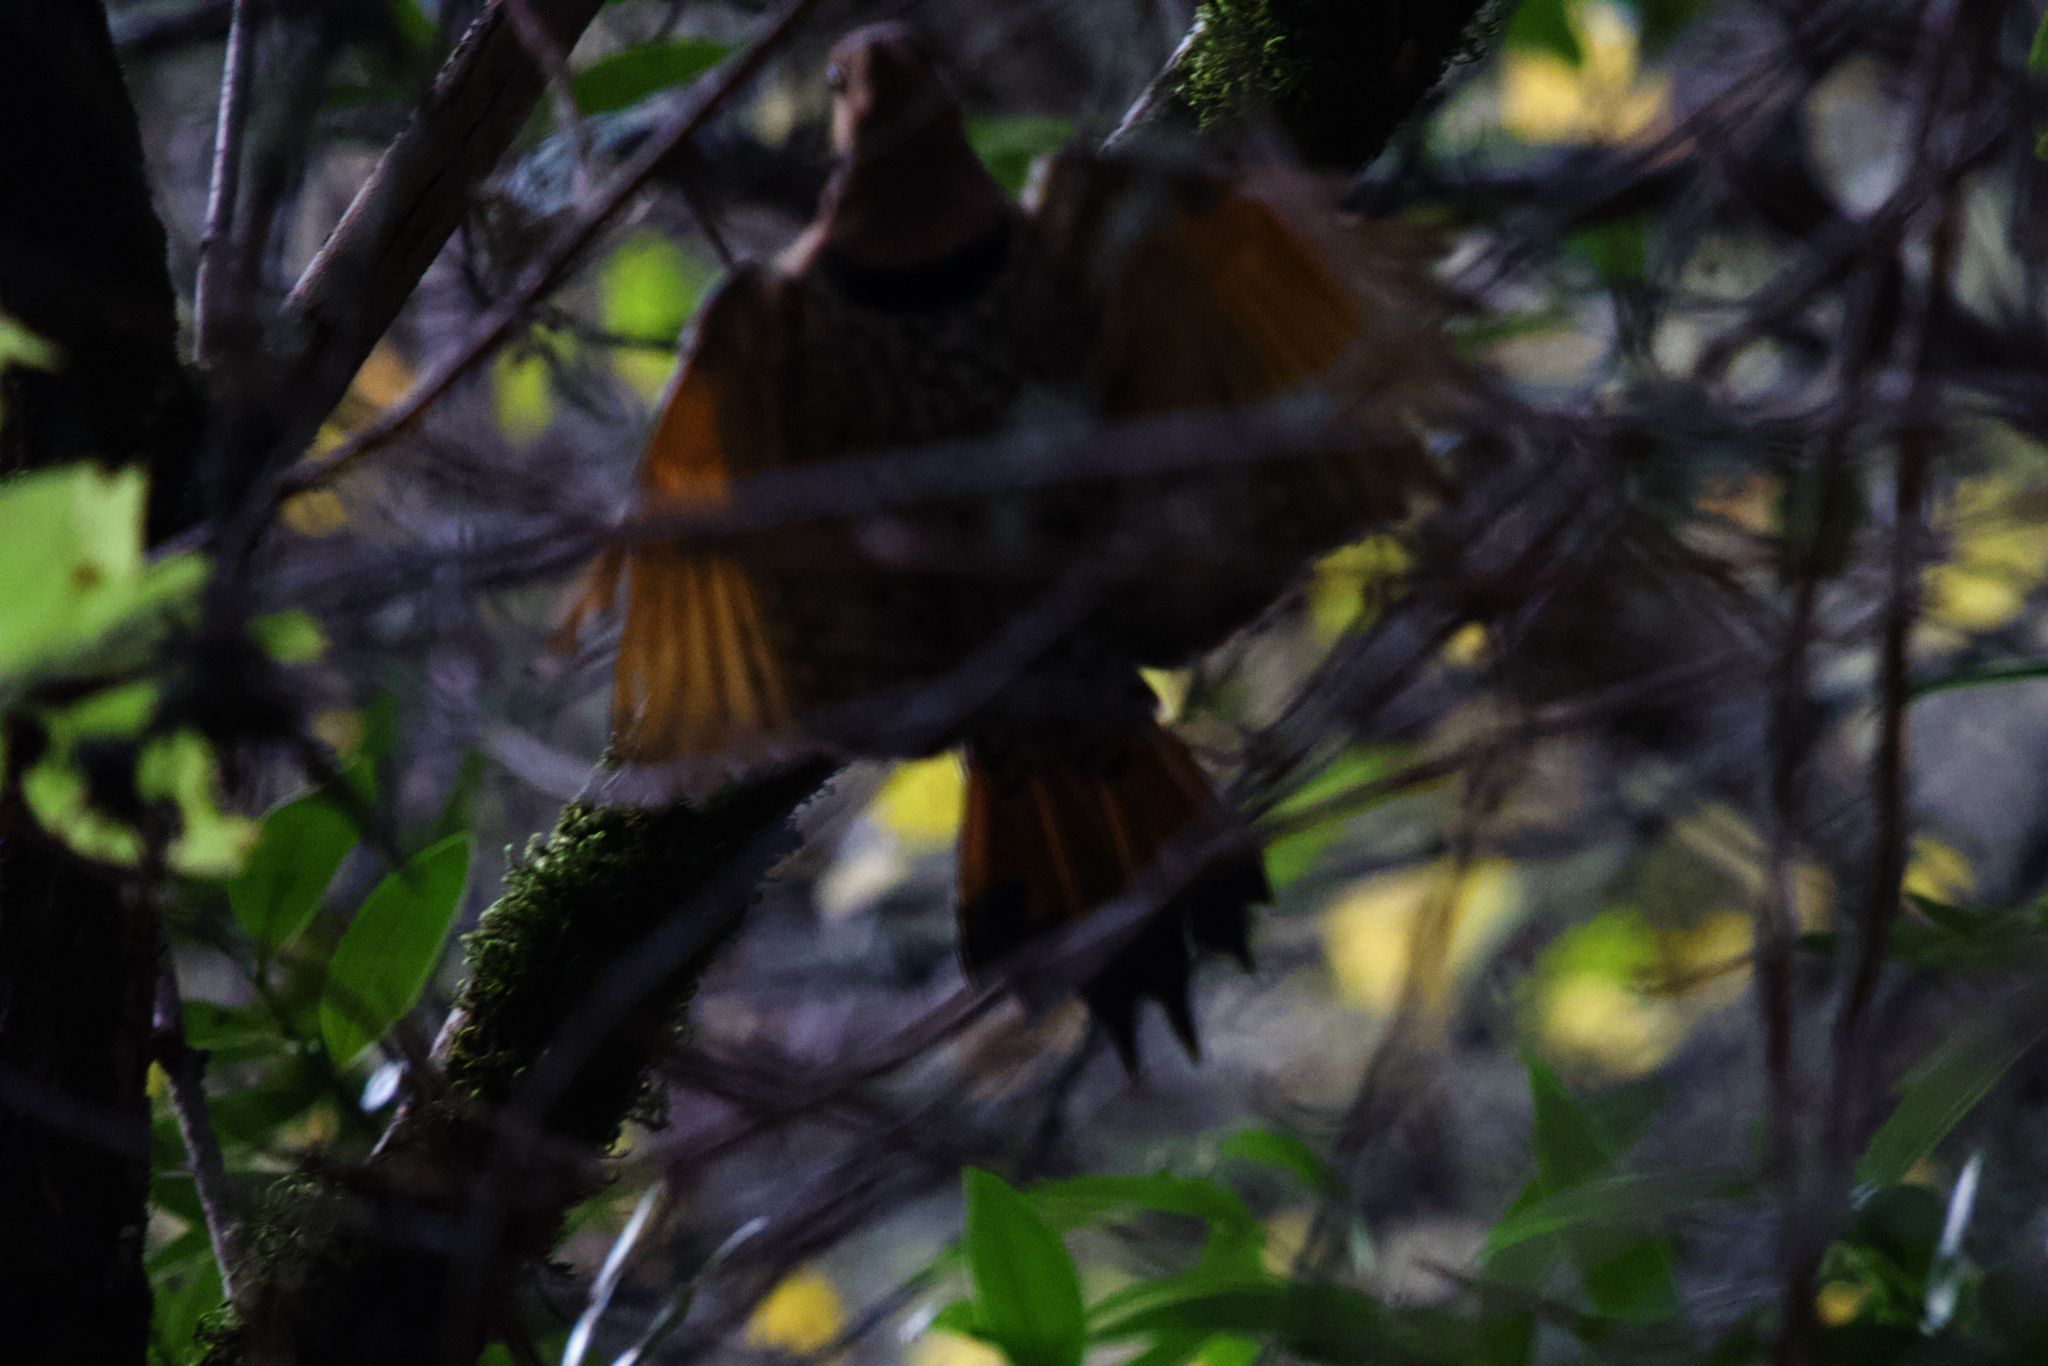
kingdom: Animalia
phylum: Chordata
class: Aves
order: Piciformes
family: Picidae
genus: Colaptes
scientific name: Colaptes auratus
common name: Northern flicker
